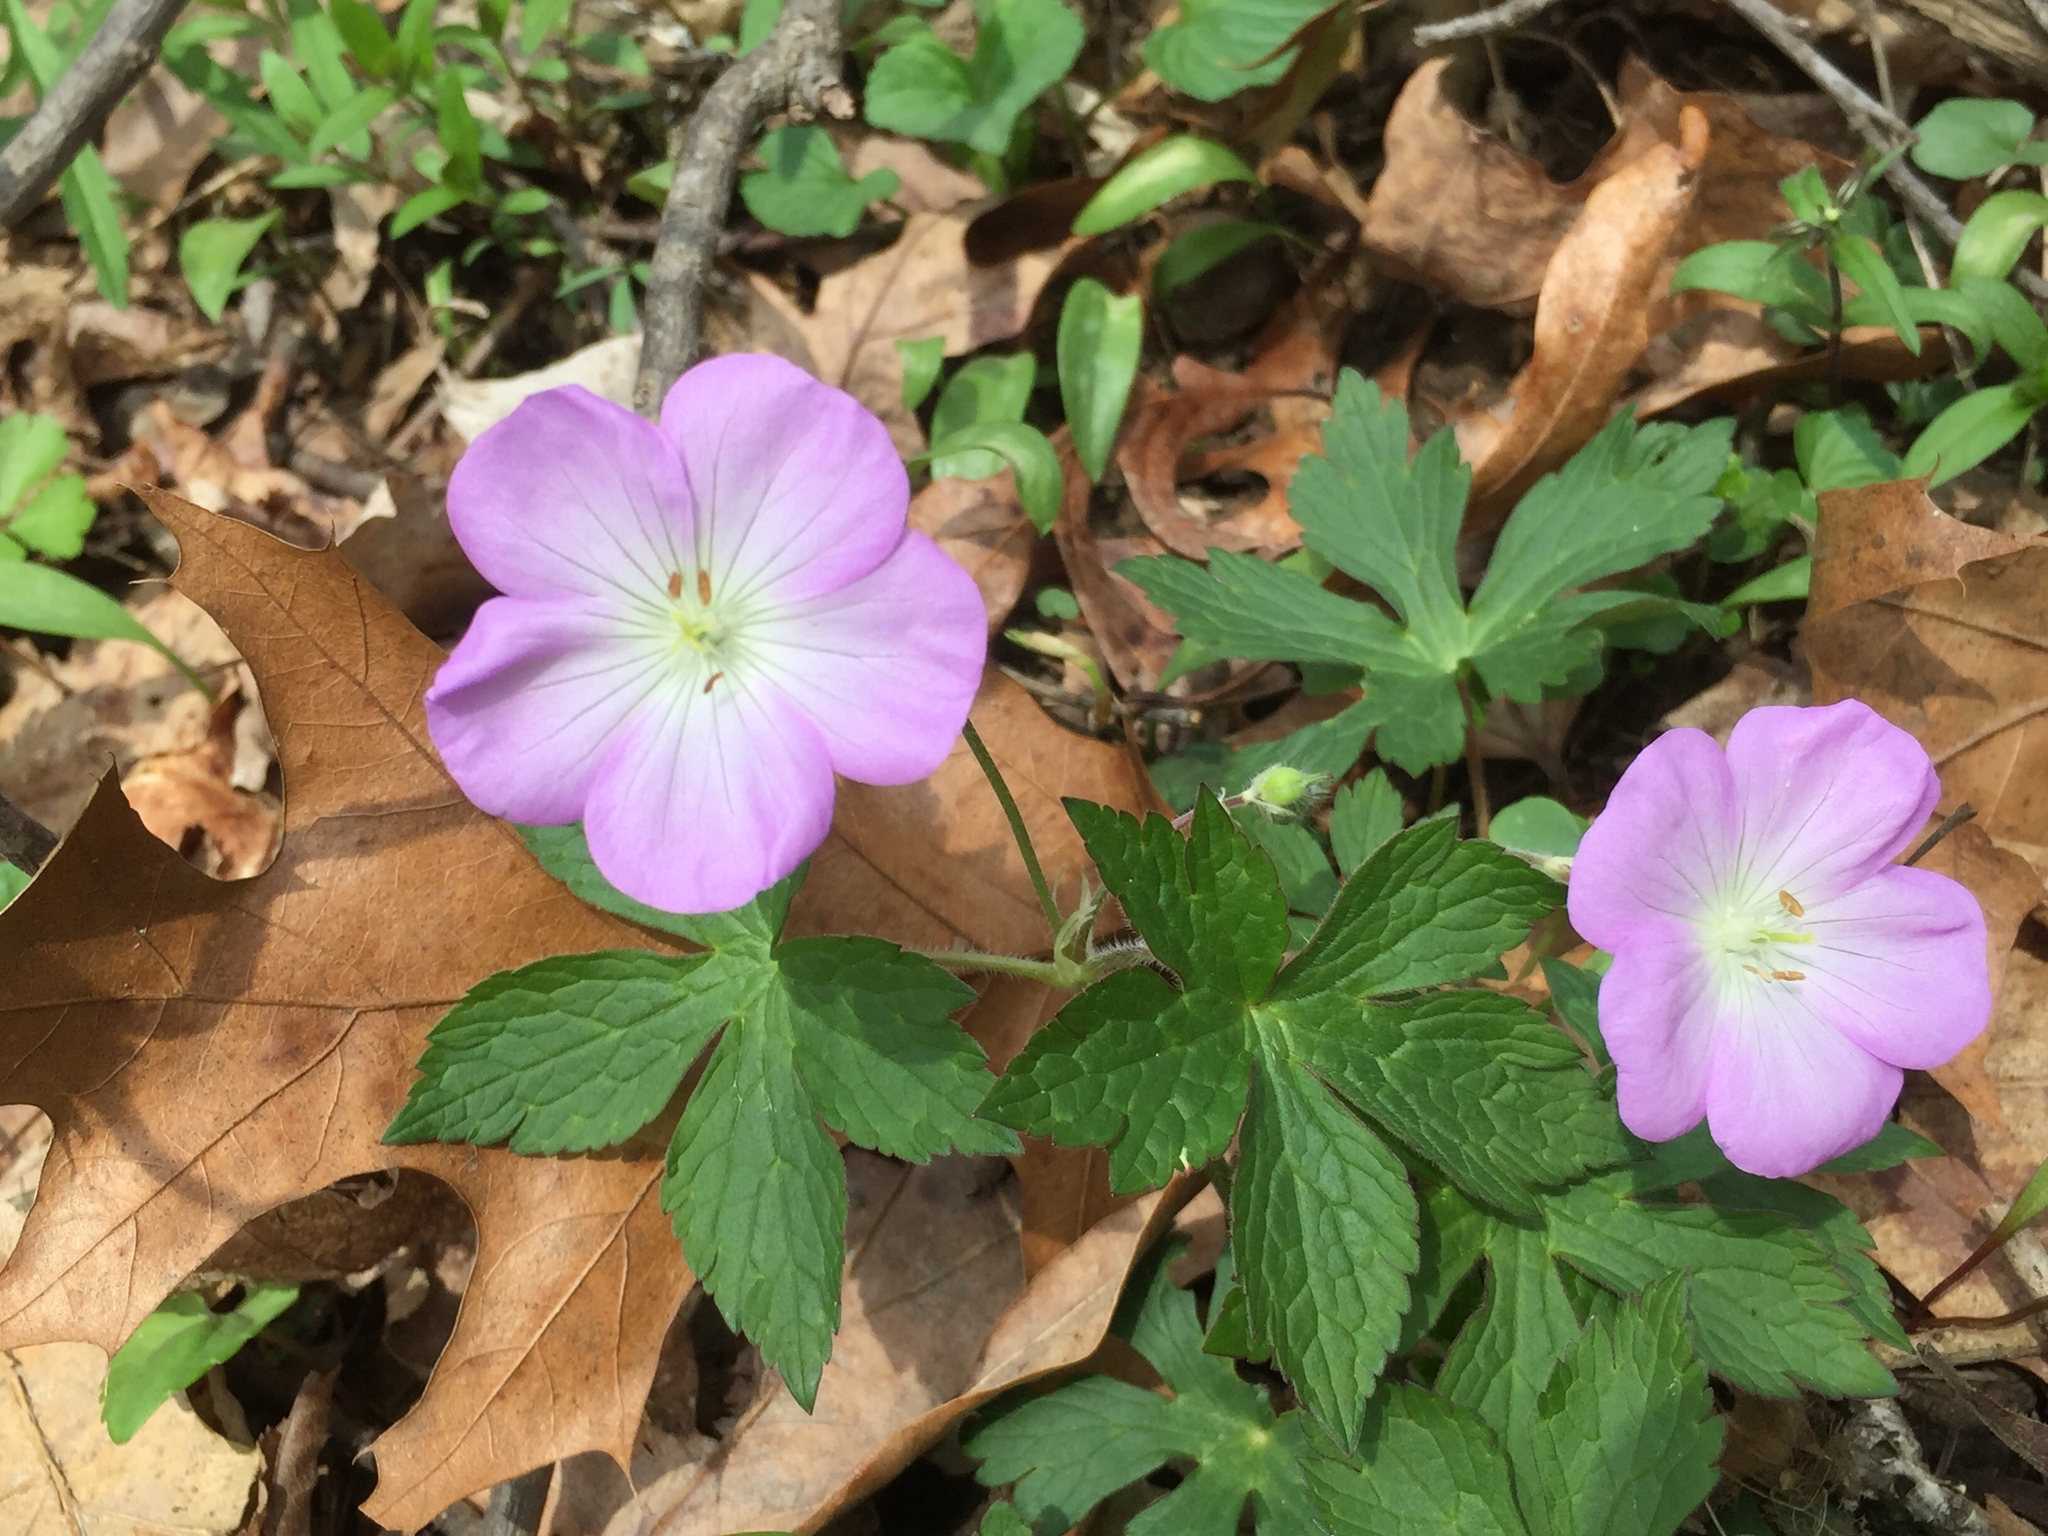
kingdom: Plantae
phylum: Tracheophyta
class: Magnoliopsida
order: Geraniales
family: Geraniaceae
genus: Geranium
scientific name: Geranium maculatum
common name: Spotted geranium
